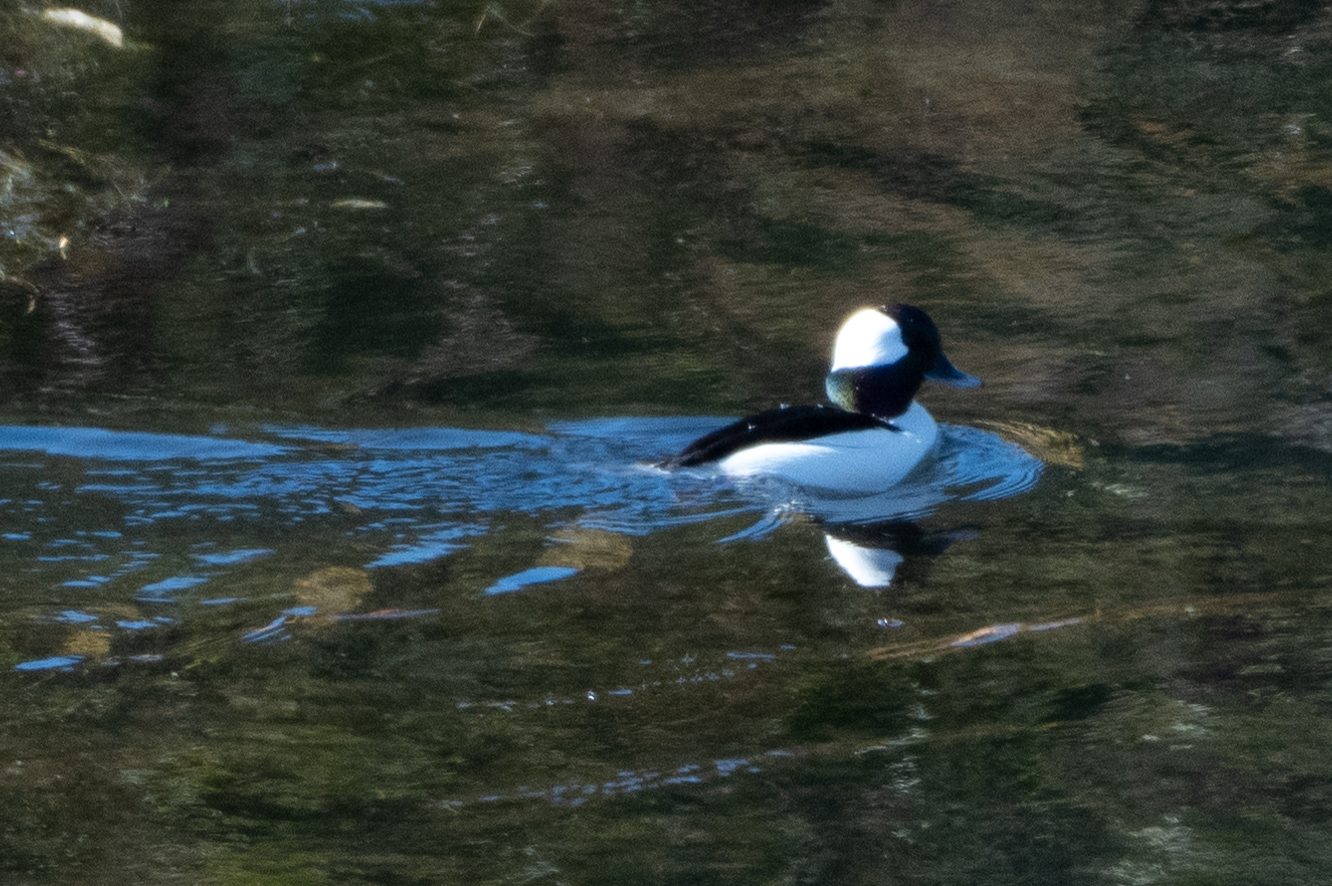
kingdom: Animalia
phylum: Chordata
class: Aves
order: Anseriformes
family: Anatidae
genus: Bucephala
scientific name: Bucephala albeola
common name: Bufflehead
